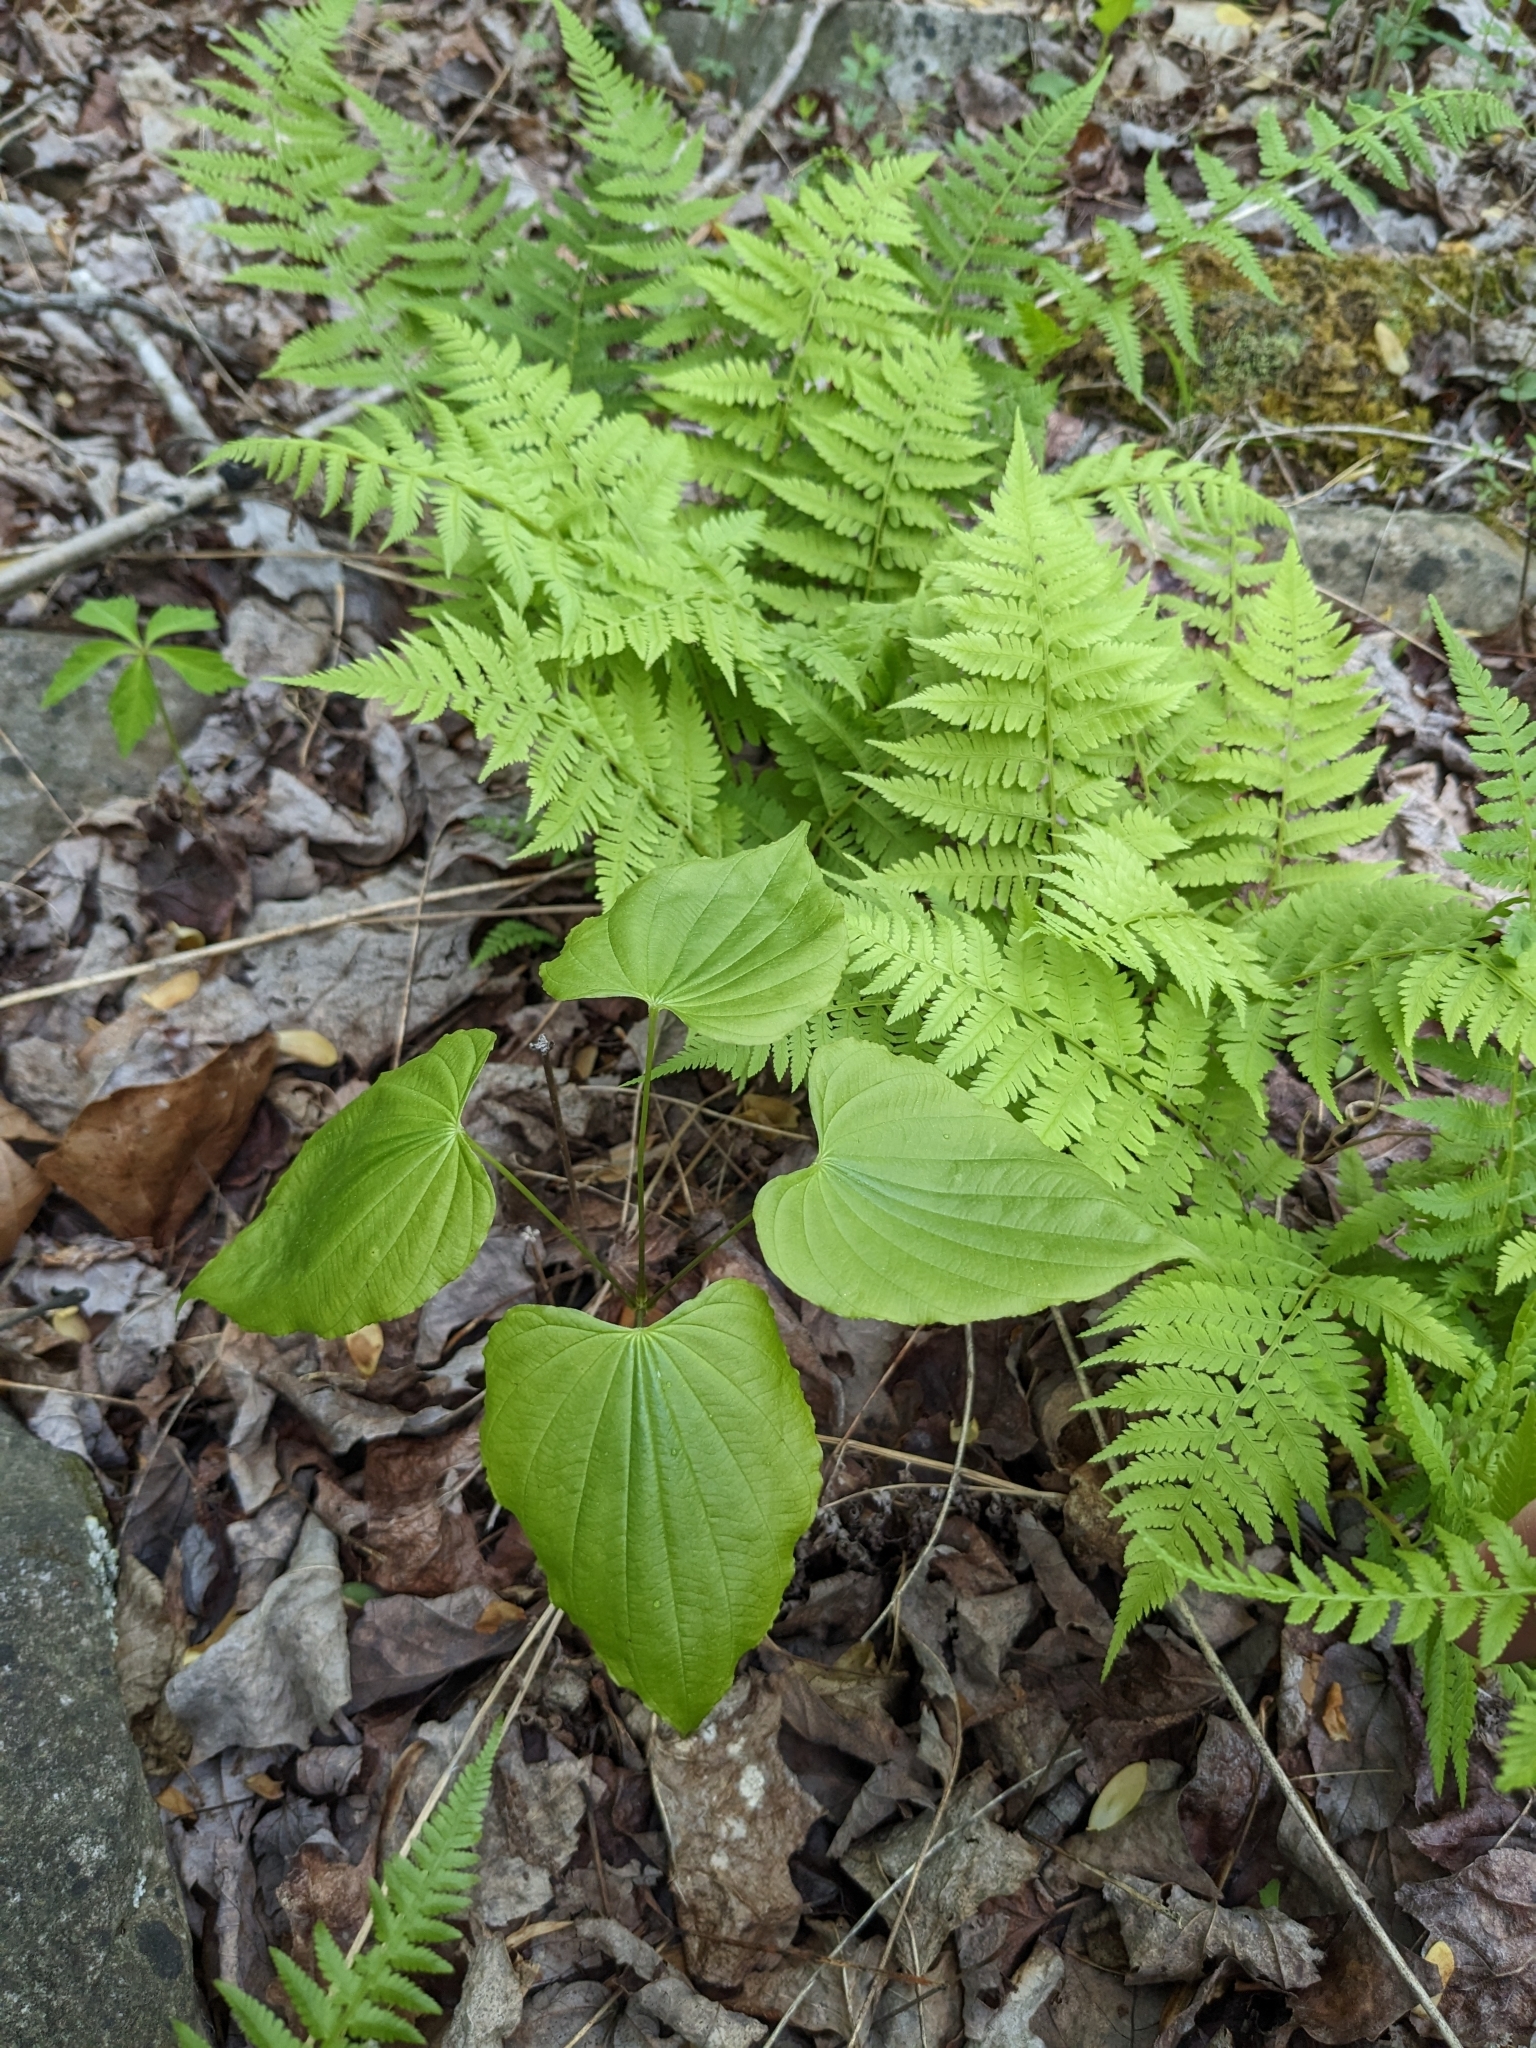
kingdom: Plantae
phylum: Tracheophyta
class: Liliopsida
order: Dioscoreales
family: Dioscoreaceae
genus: Dioscorea
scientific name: Dioscorea villosa
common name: Wild yam
